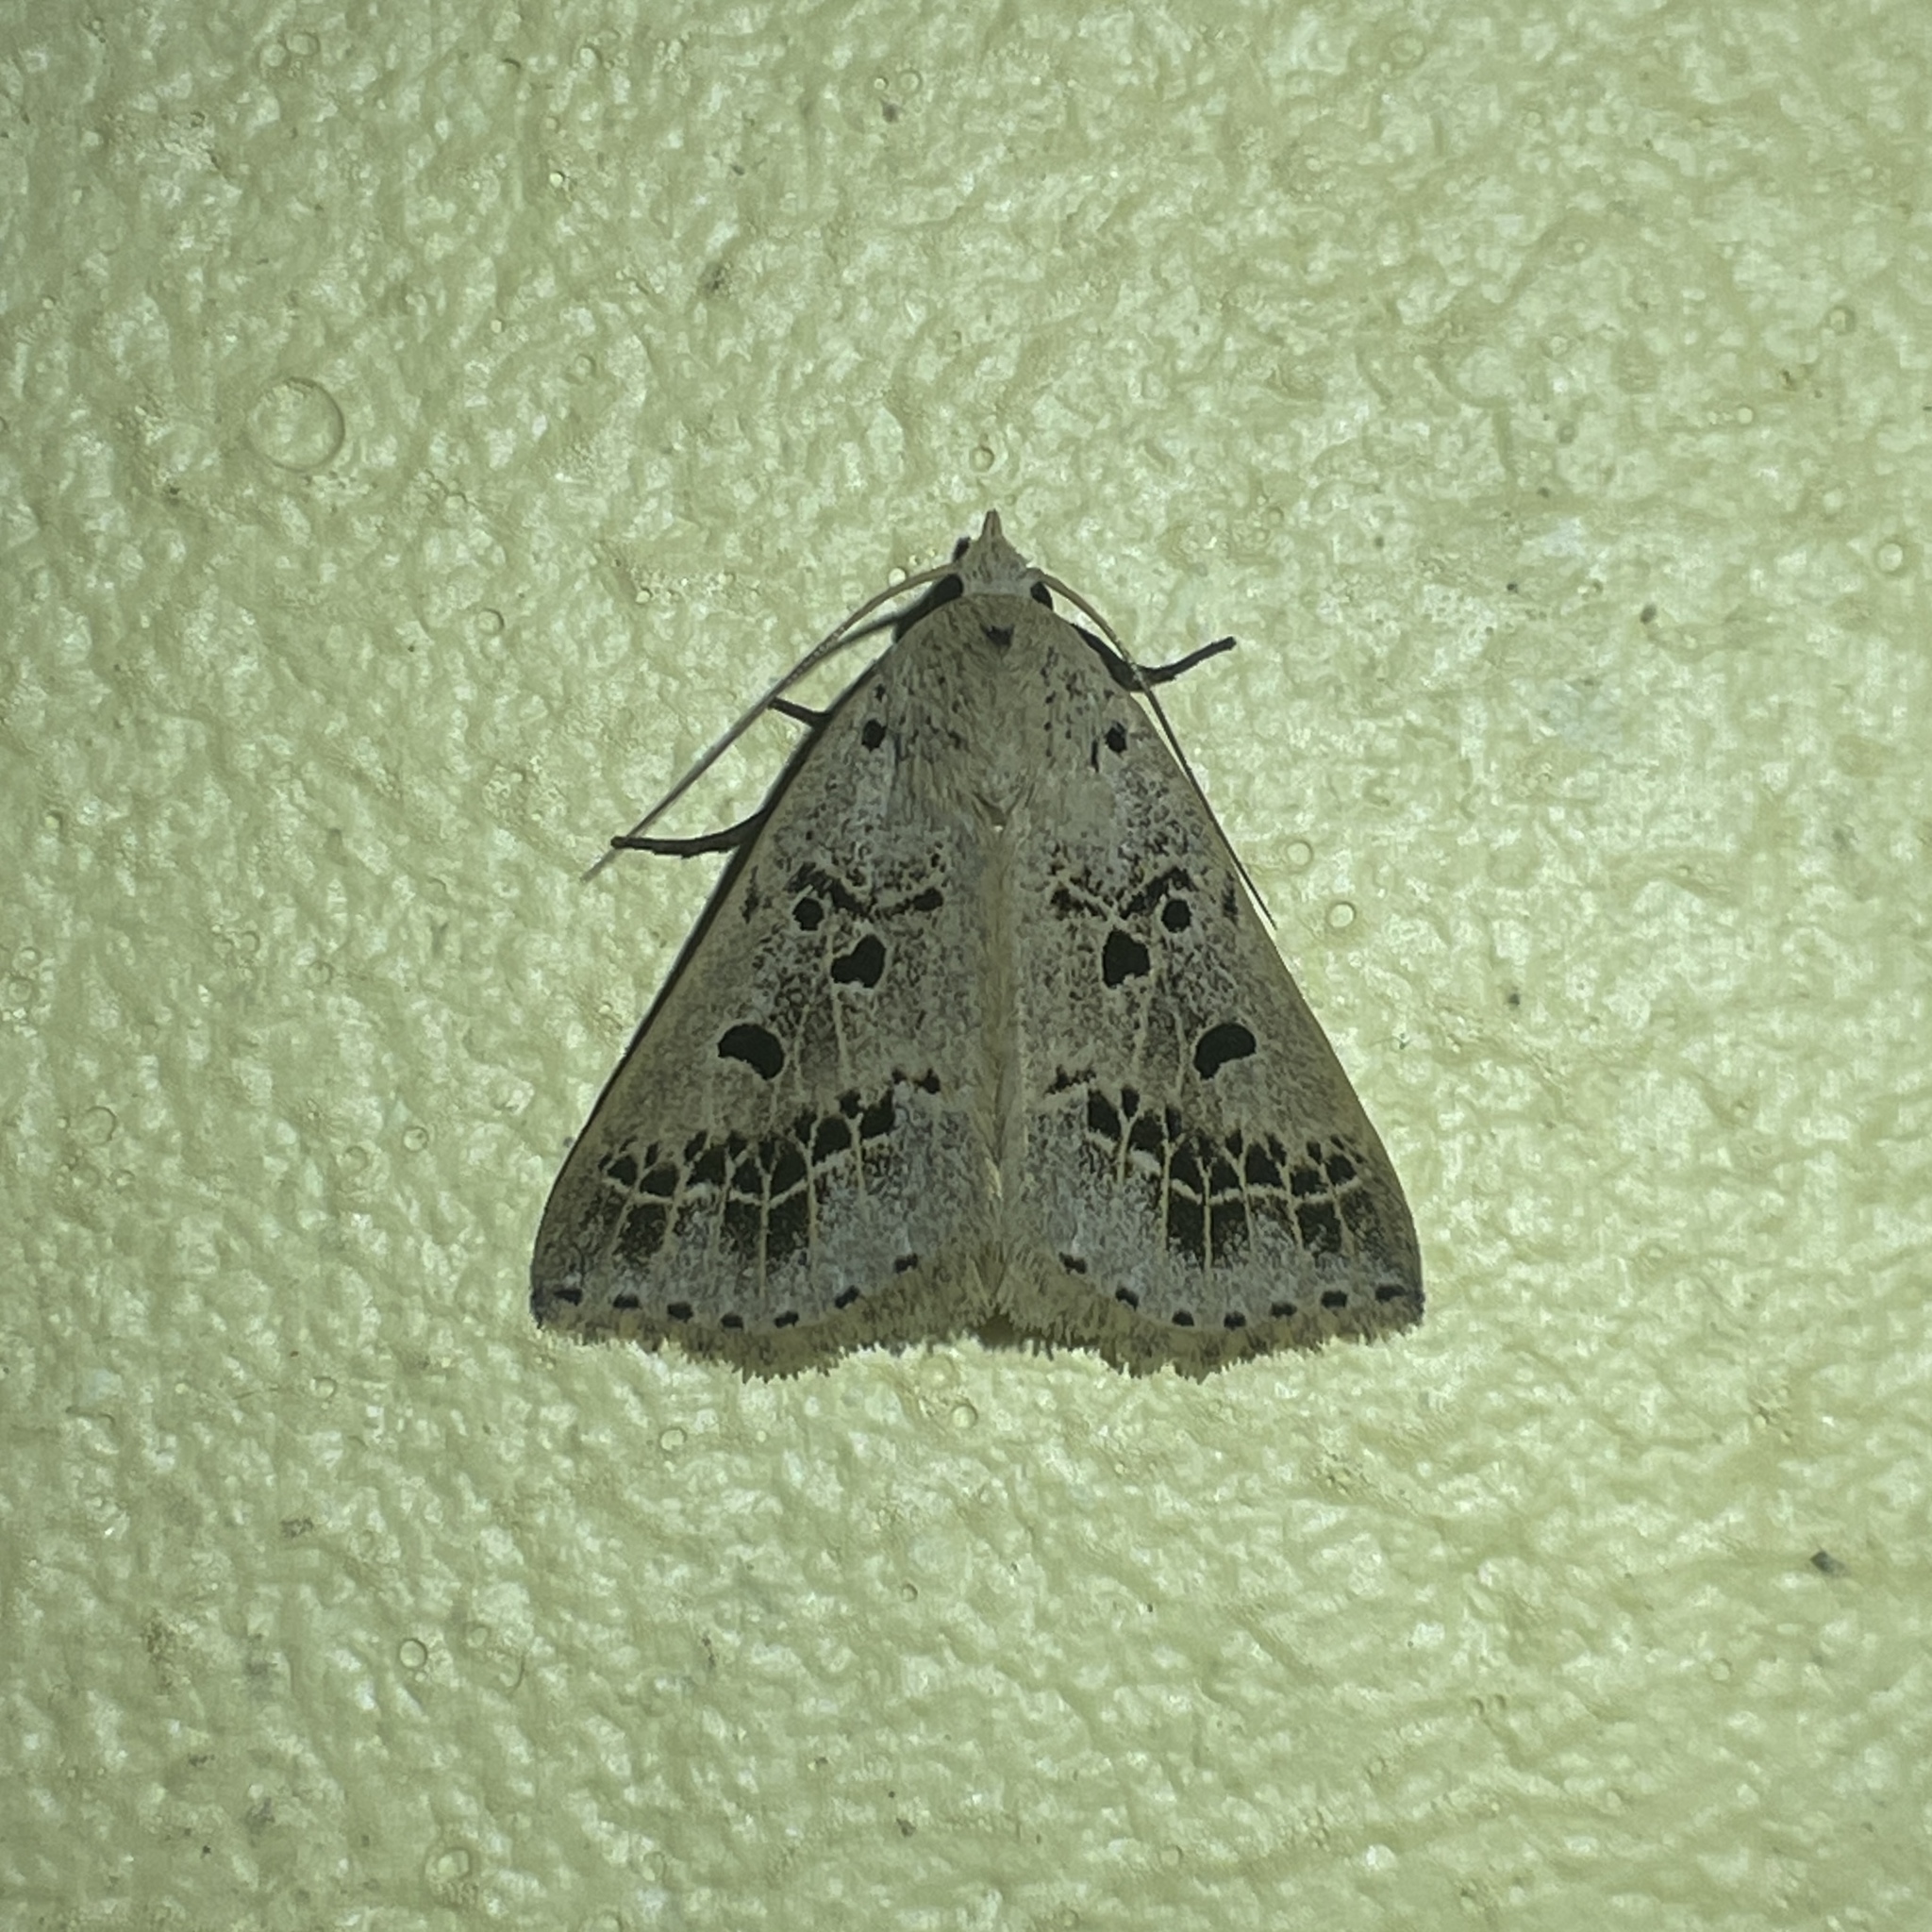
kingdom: Animalia
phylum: Arthropoda
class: Insecta
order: Lepidoptera
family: Erebidae
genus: Scolecocampa
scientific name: Scolecocampa Herminodes atrosignata
